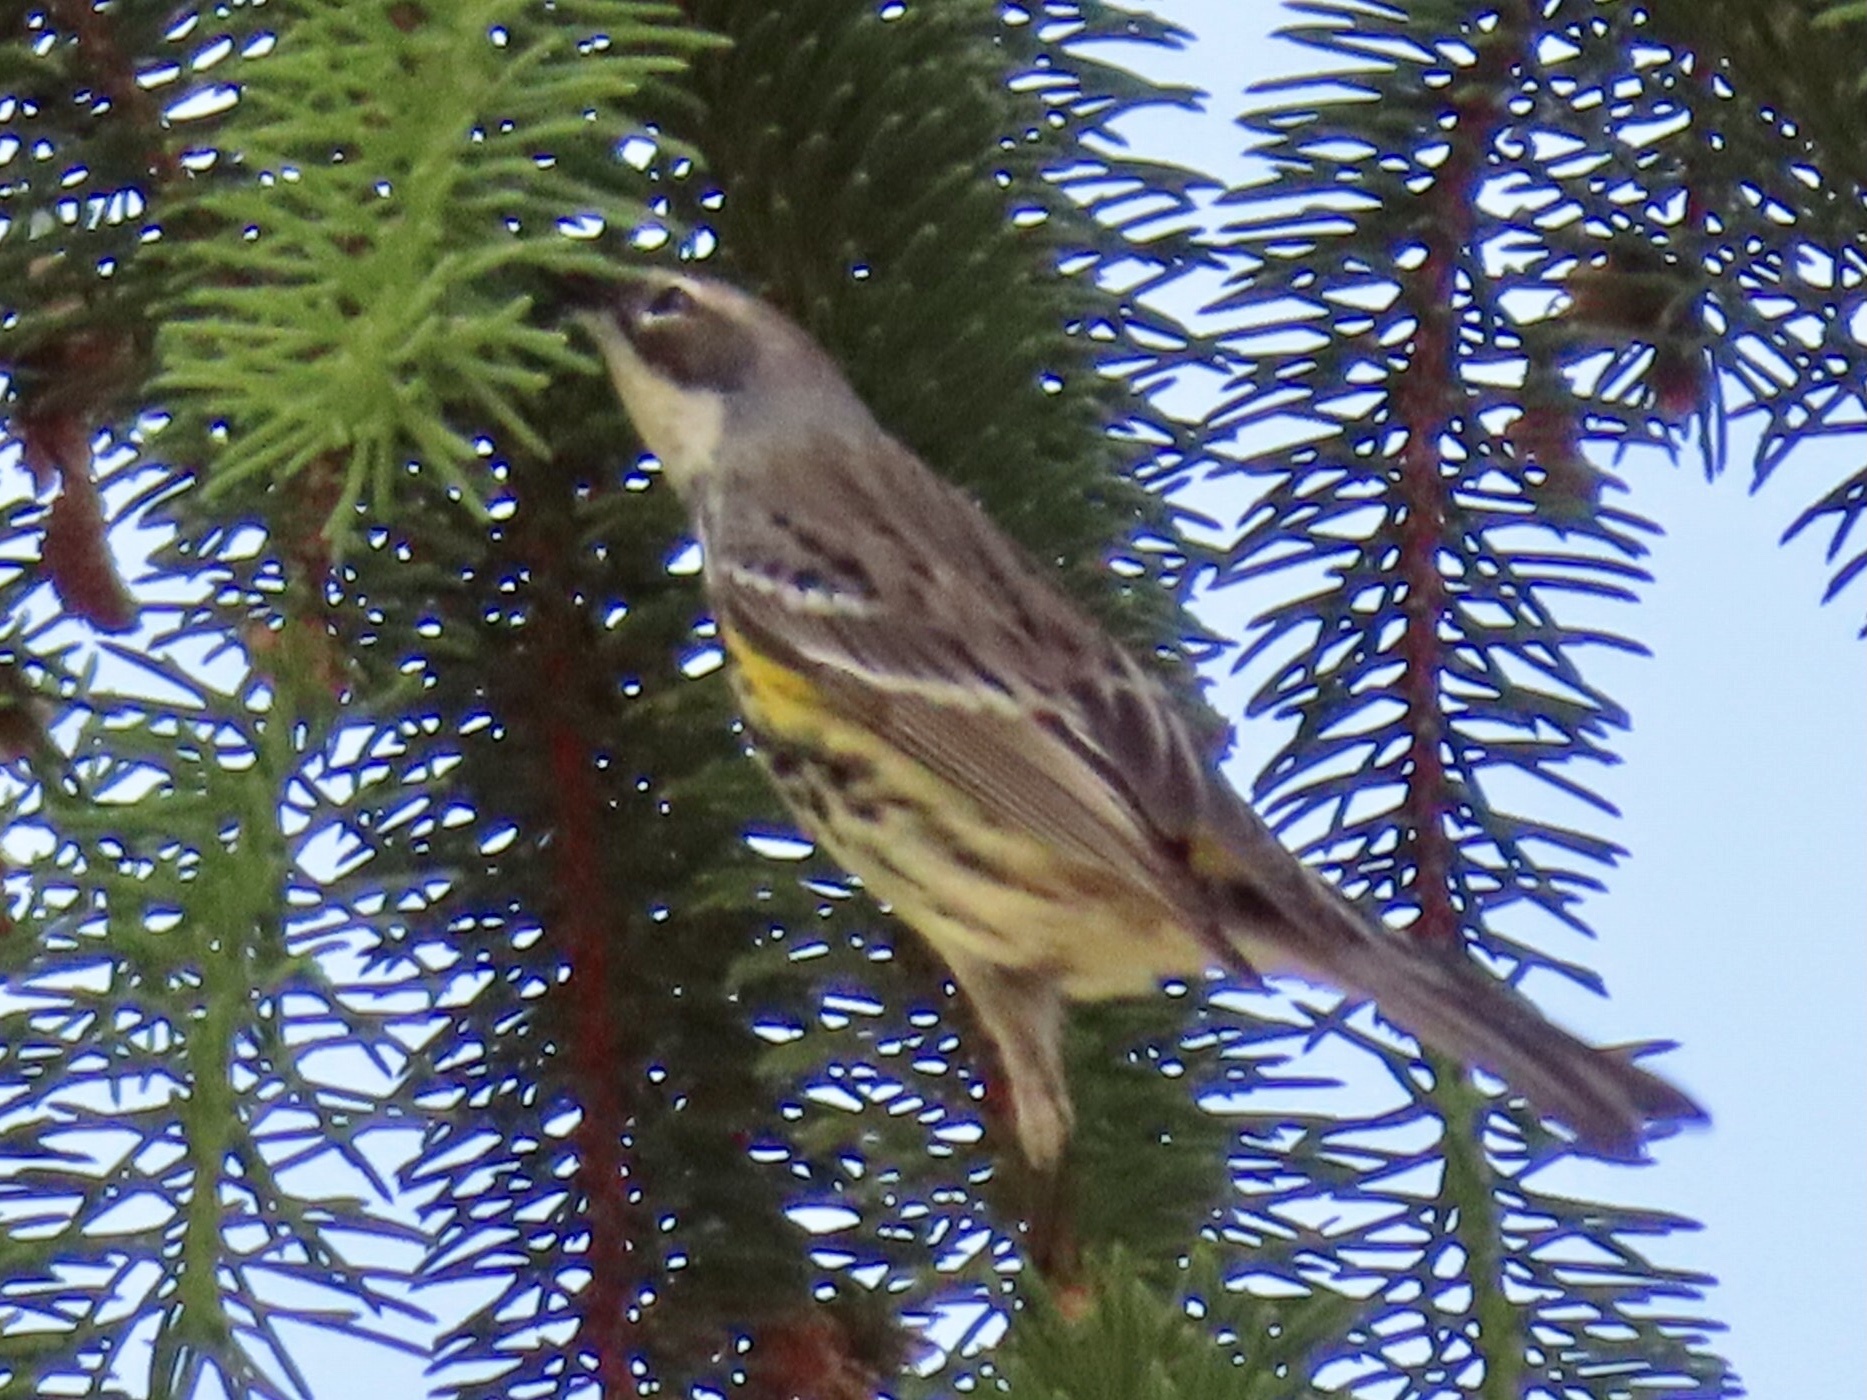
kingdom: Animalia
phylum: Chordata
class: Aves
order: Passeriformes
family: Parulidae
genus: Setophaga
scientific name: Setophaga coronata
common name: Myrtle warbler
